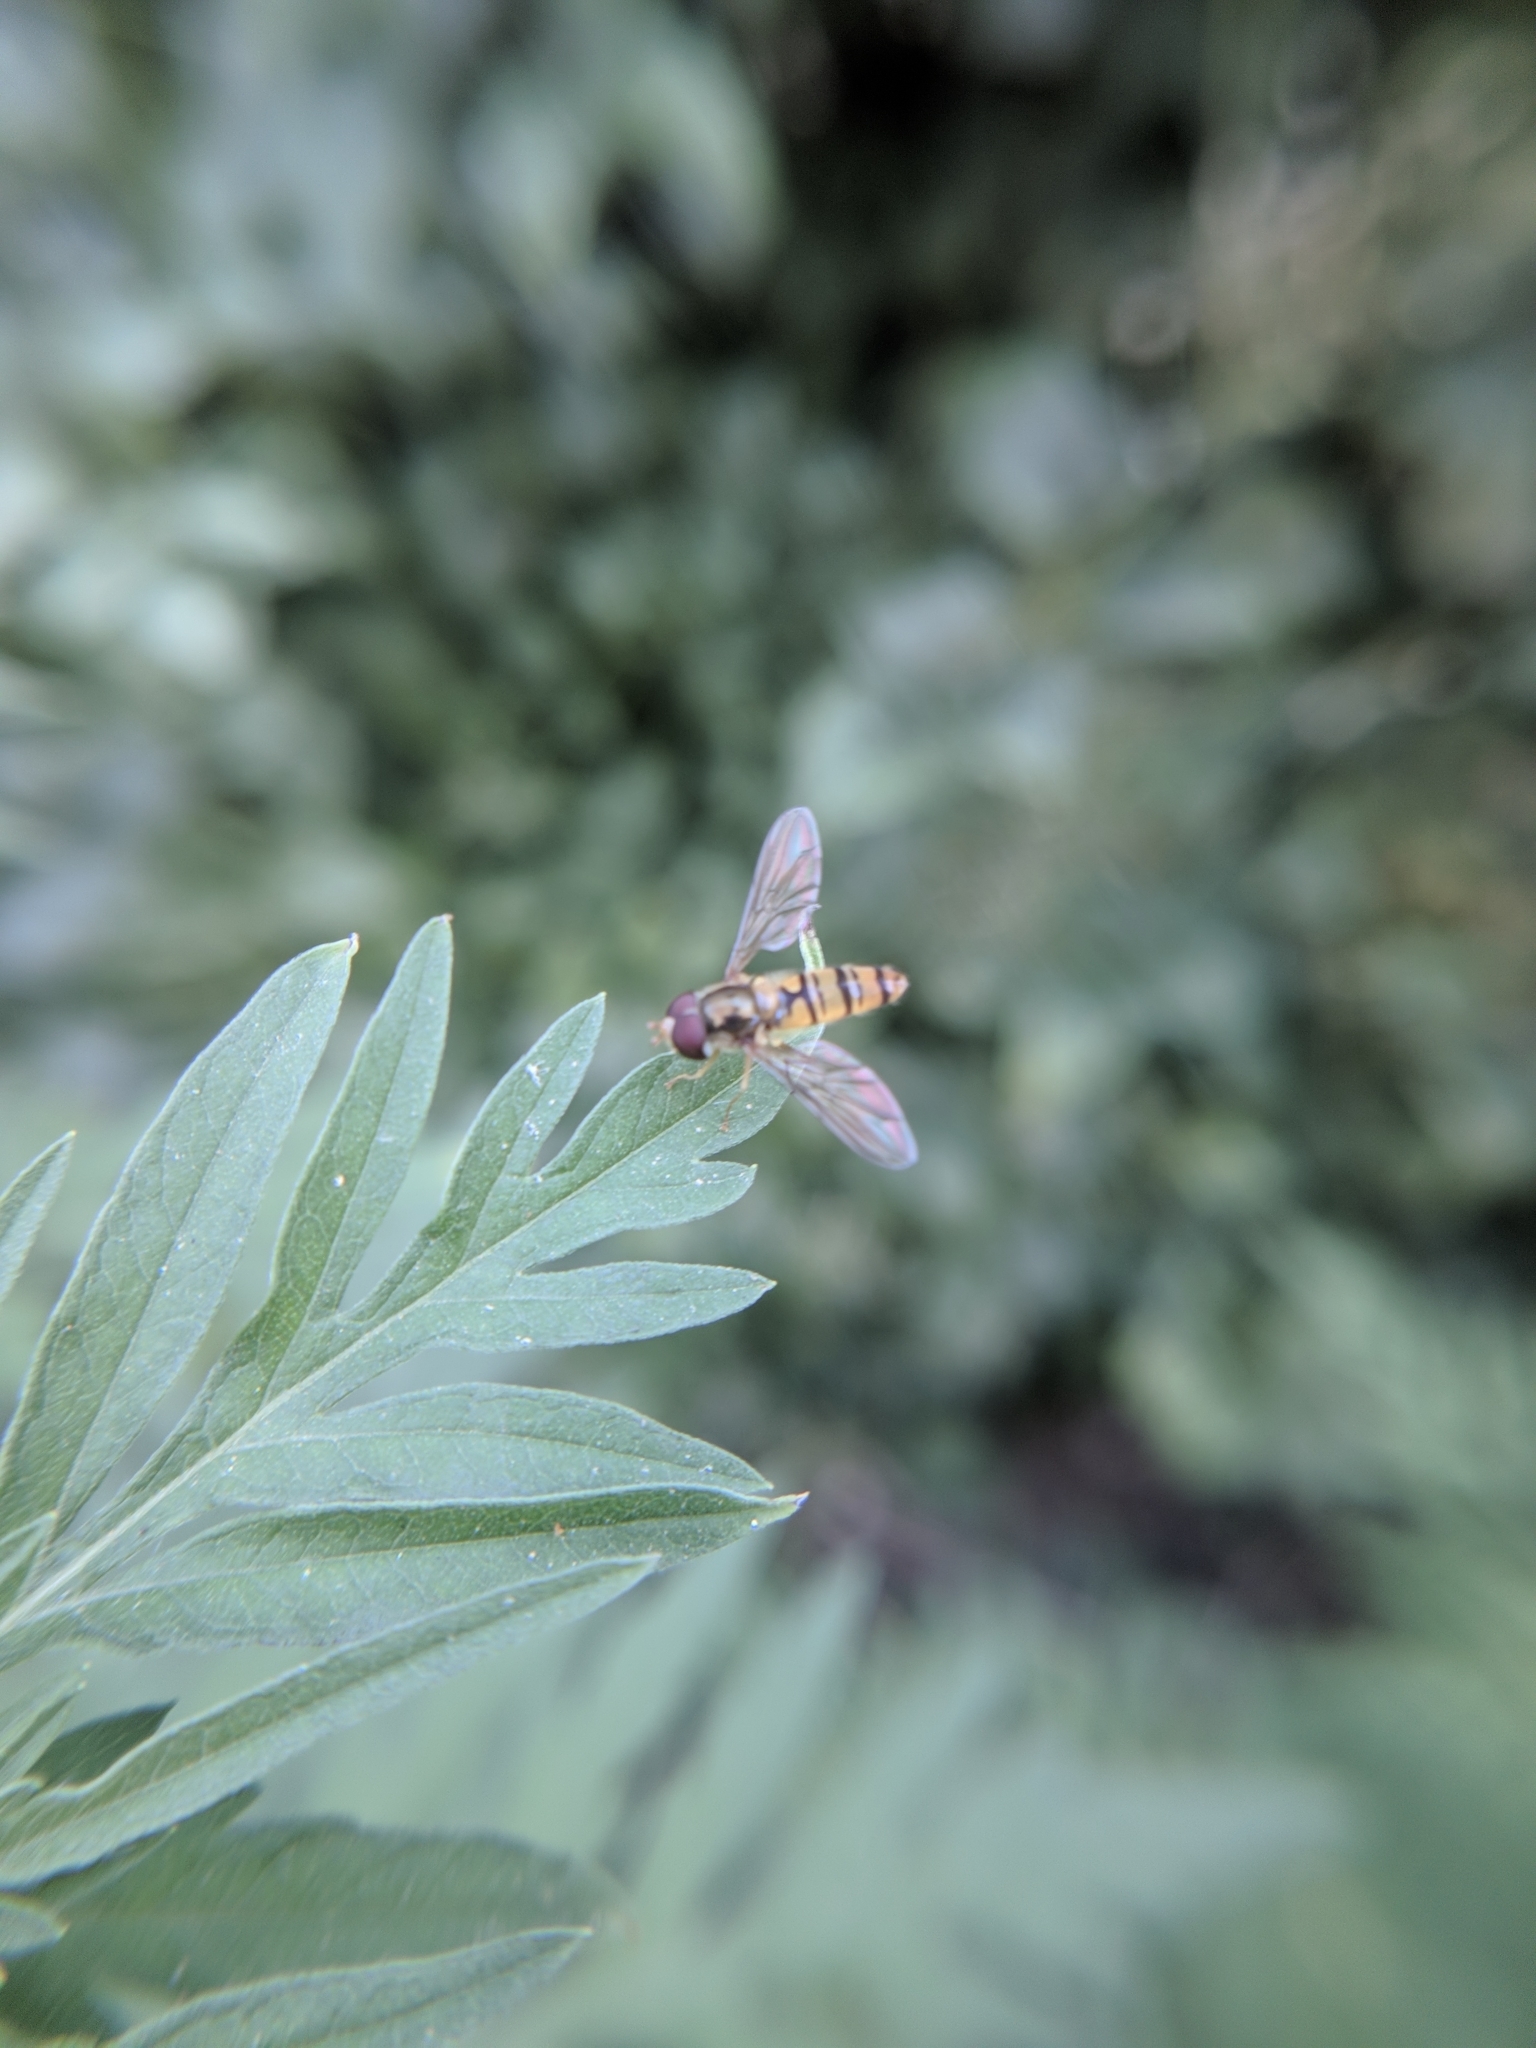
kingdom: Animalia
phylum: Arthropoda
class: Insecta
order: Diptera
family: Syrphidae
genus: Episyrphus
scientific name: Episyrphus balteatus
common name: Marmalade hoverfly
